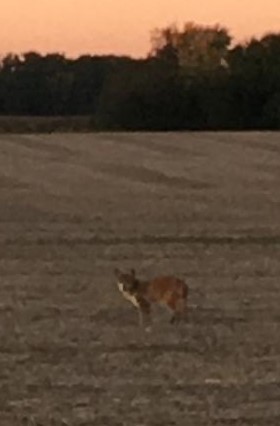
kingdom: Animalia
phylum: Chordata
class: Mammalia
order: Carnivora
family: Canidae
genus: Canis
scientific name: Canis latrans
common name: Coyote
